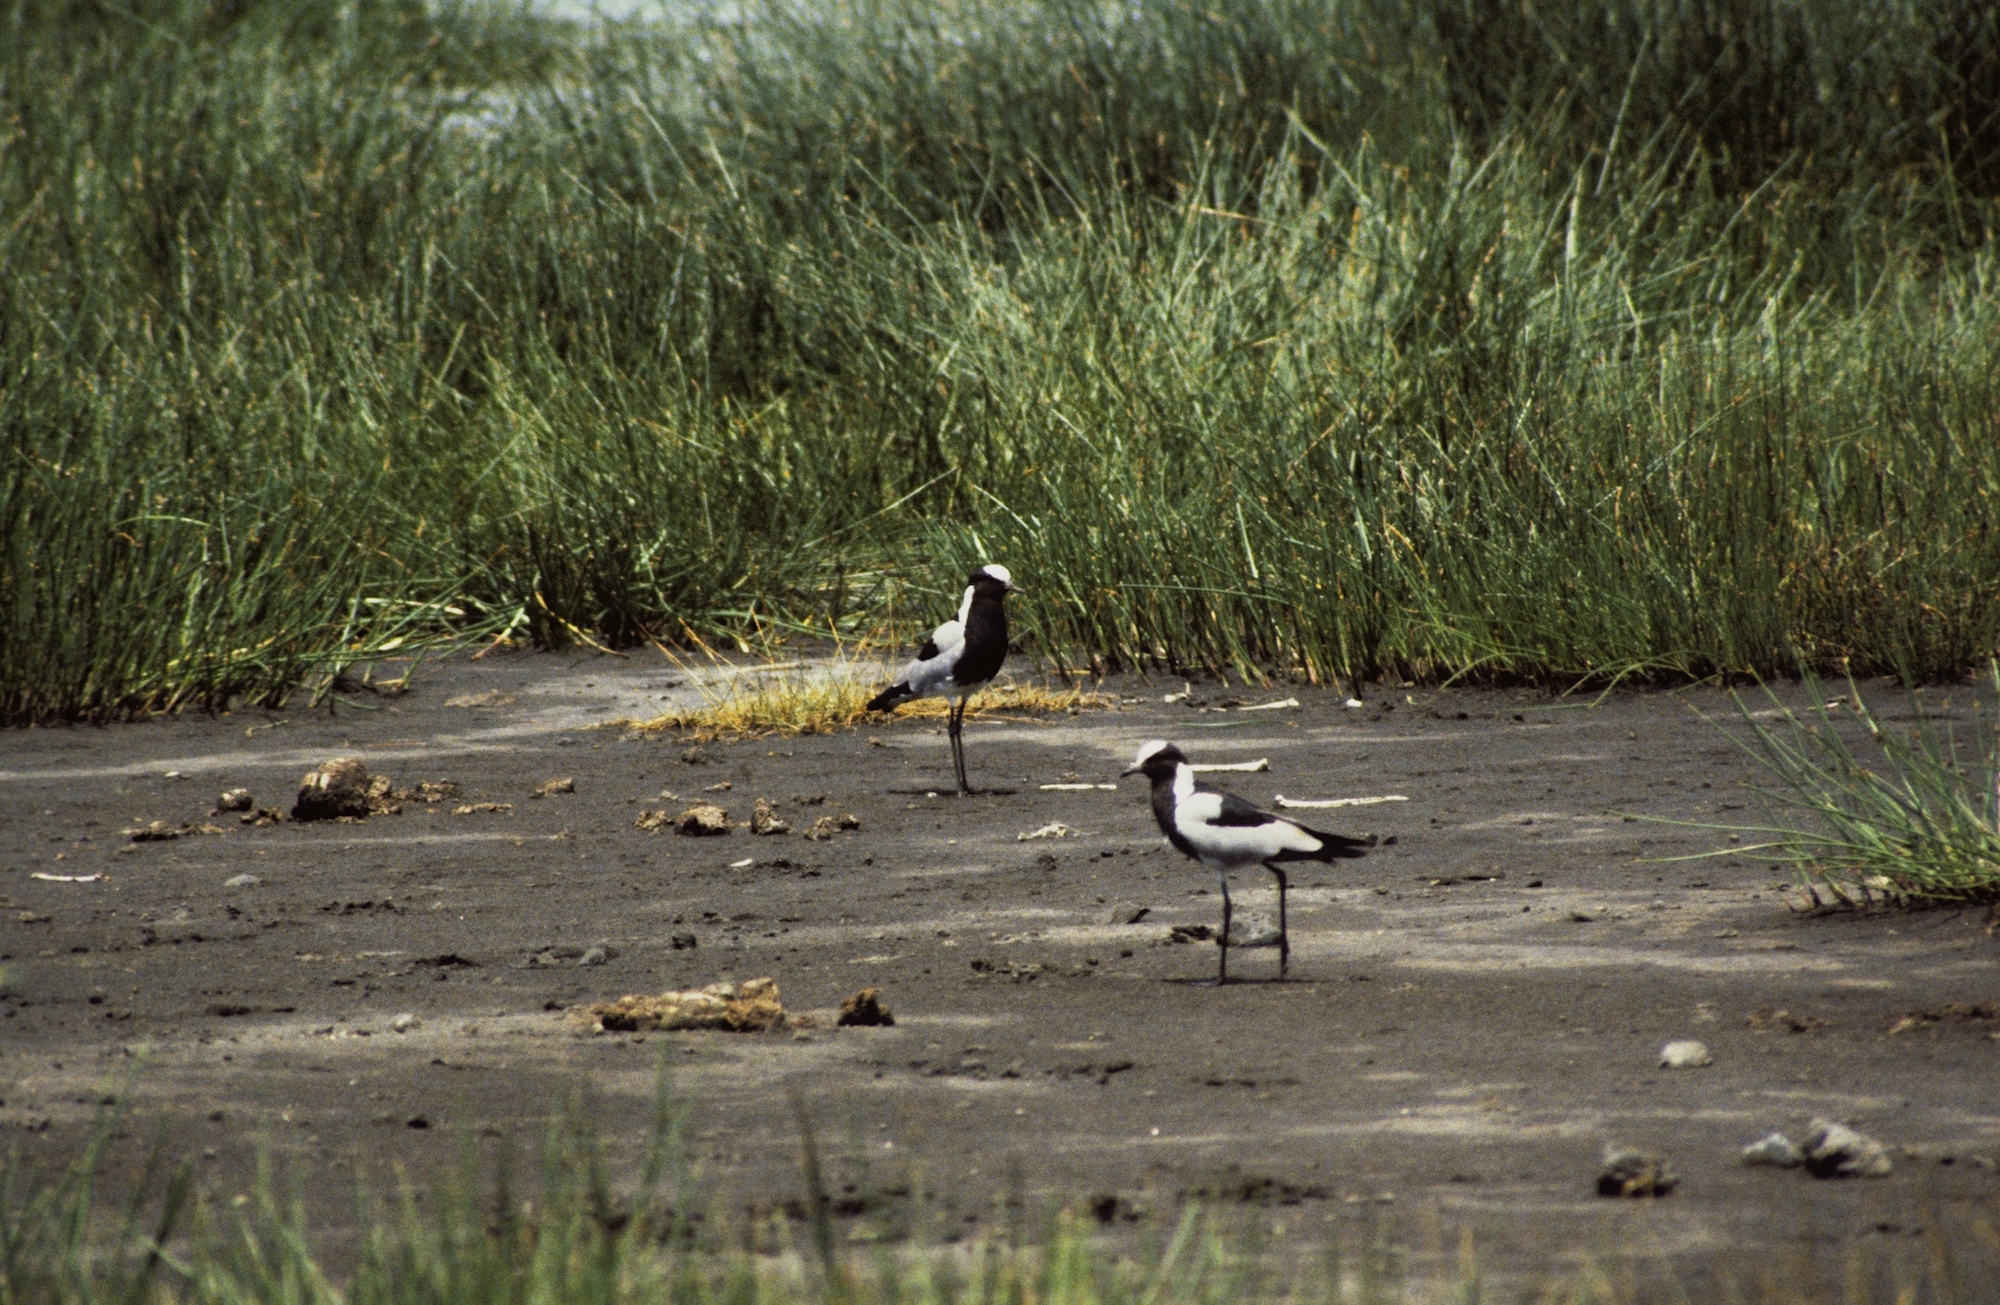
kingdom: Animalia
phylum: Chordata
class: Aves
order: Charadriiformes
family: Charadriidae
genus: Vanellus
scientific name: Vanellus armatus
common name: Blacksmith lapwing
